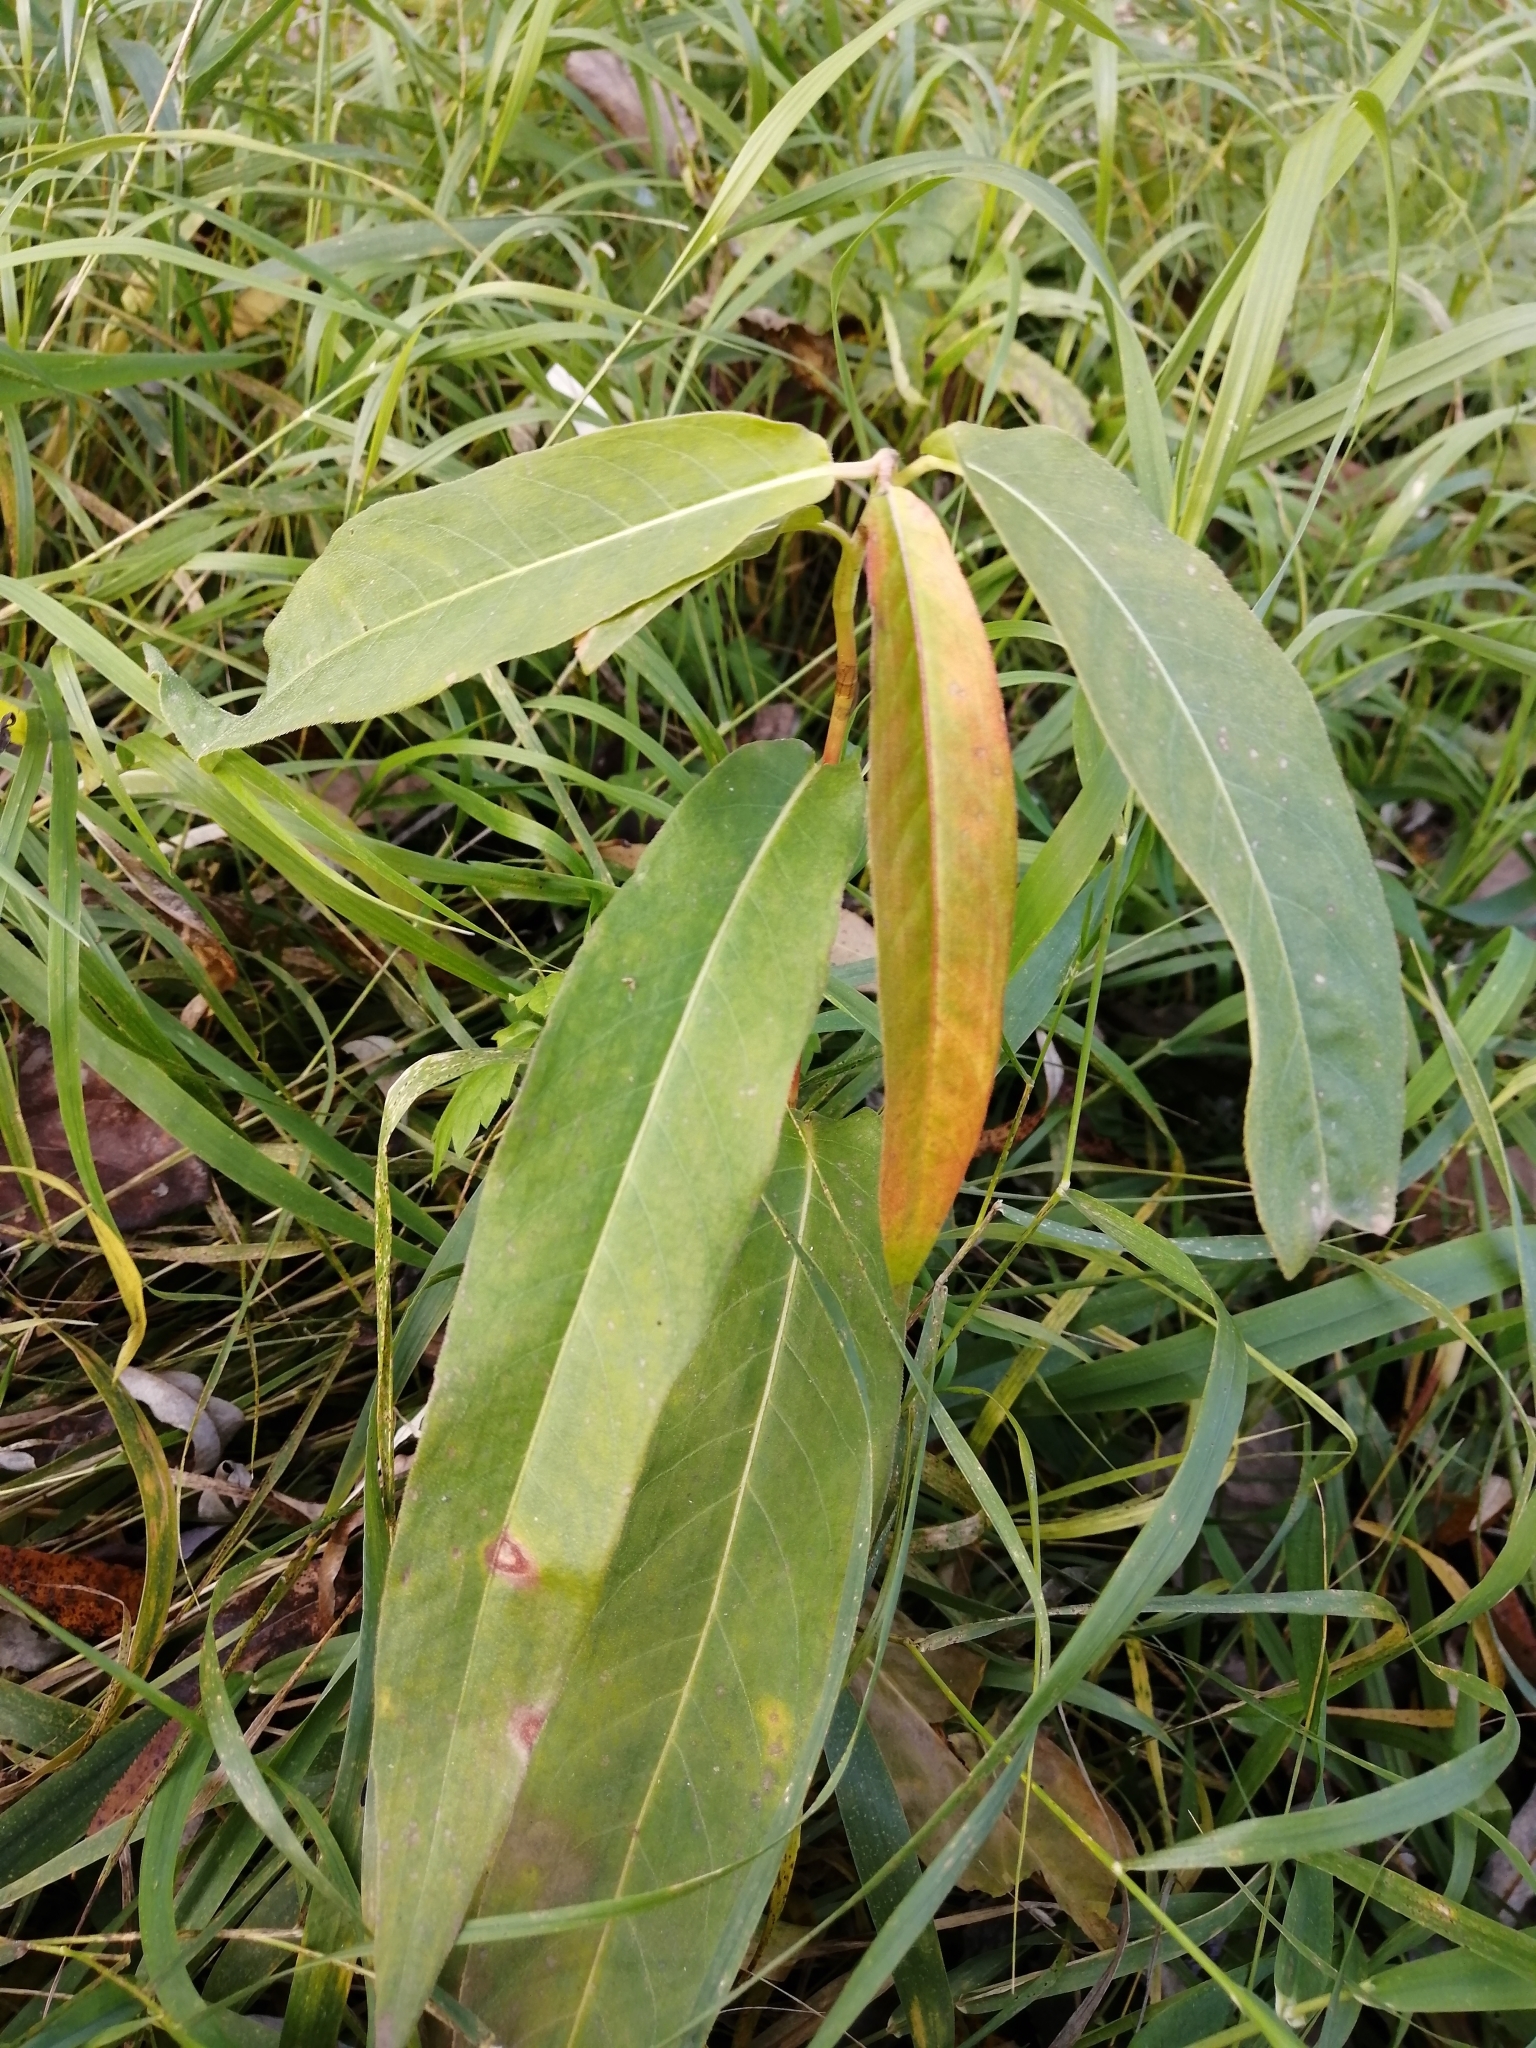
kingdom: Plantae
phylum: Tracheophyta
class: Magnoliopsida
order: Caryophyllales
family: Polygonaceae
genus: Persicaria
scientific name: Persicaria amphibia
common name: Amphibious bistort
